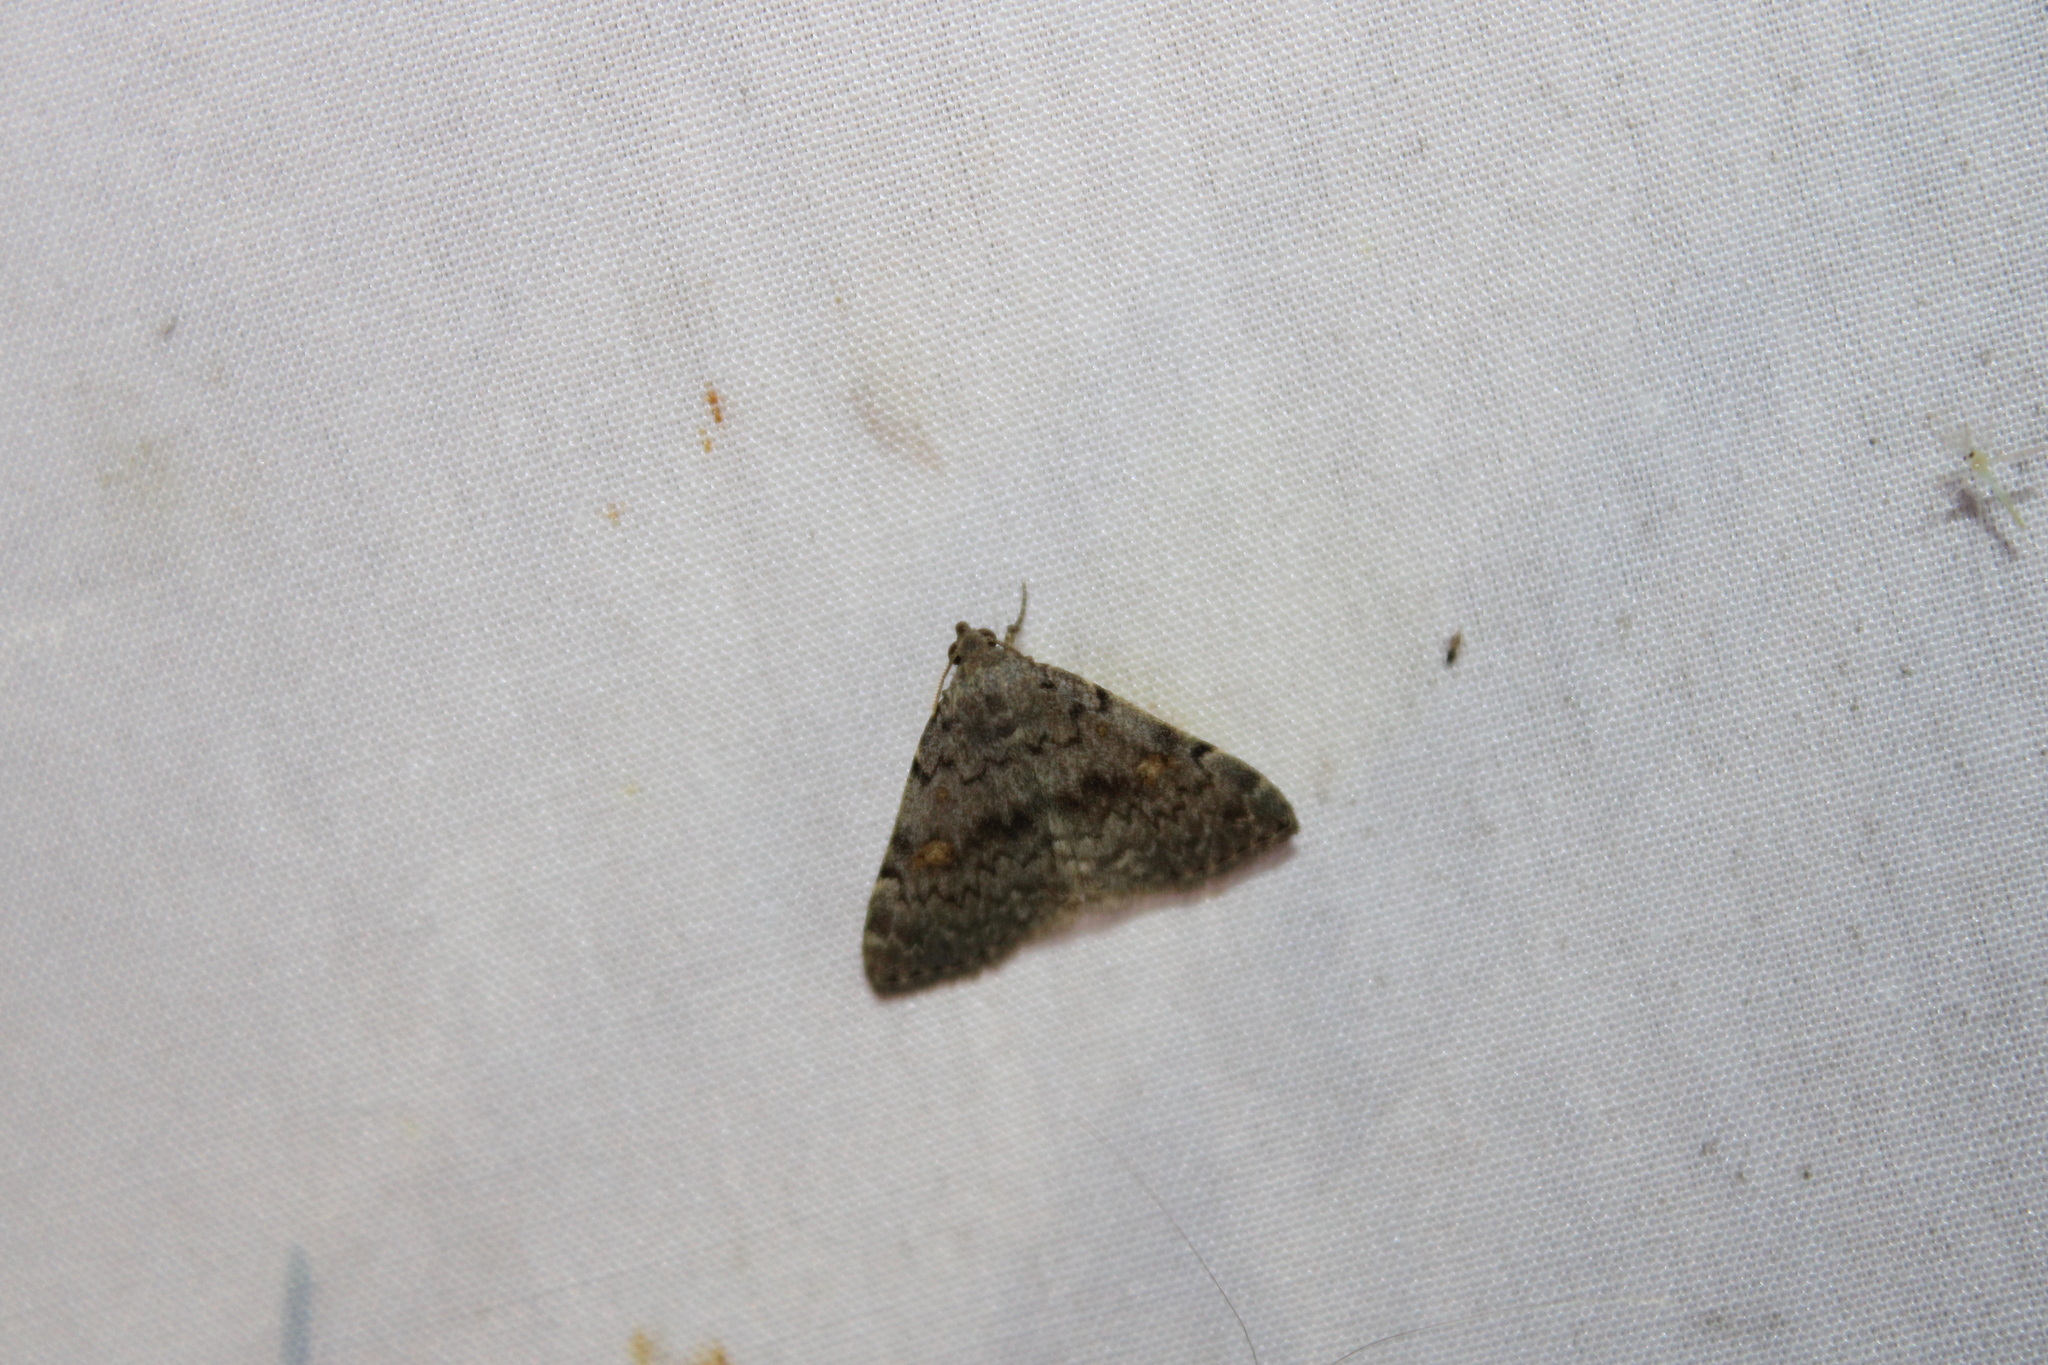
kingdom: Animalia
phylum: Arthropoda
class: Insecta
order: Lepidoptera
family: Erebidae
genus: Idia
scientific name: Idia aemula
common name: Common idia moth
